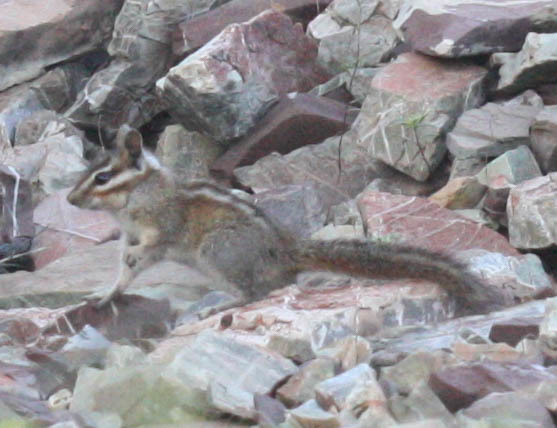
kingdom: Animalia
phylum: Chordata
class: Mammalia
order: Rodentia
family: Sciuridae
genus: Tamias
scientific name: Tamias sonomae
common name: Sonoma chipmunk
